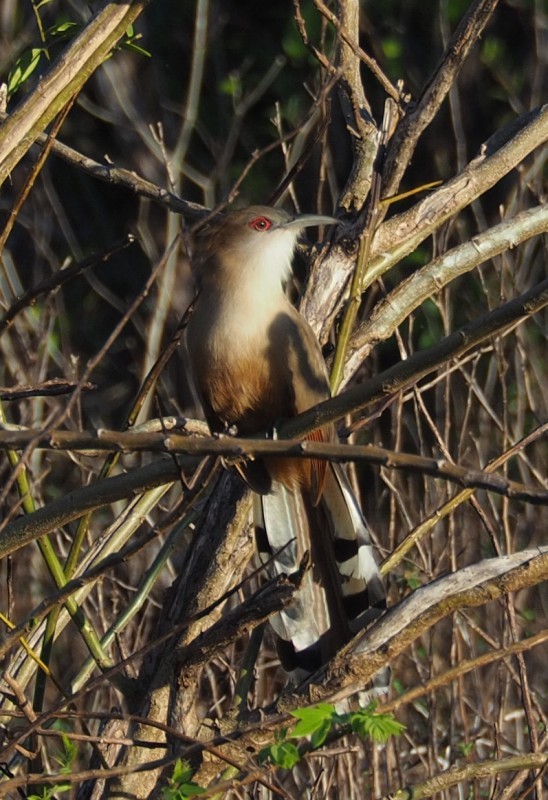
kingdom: Animalia
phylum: Chordata
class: Aves
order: Cuculiformes
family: Cuculidae
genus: Saurothera
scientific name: Saurothera merlini
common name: Great lizard-cuckoo
